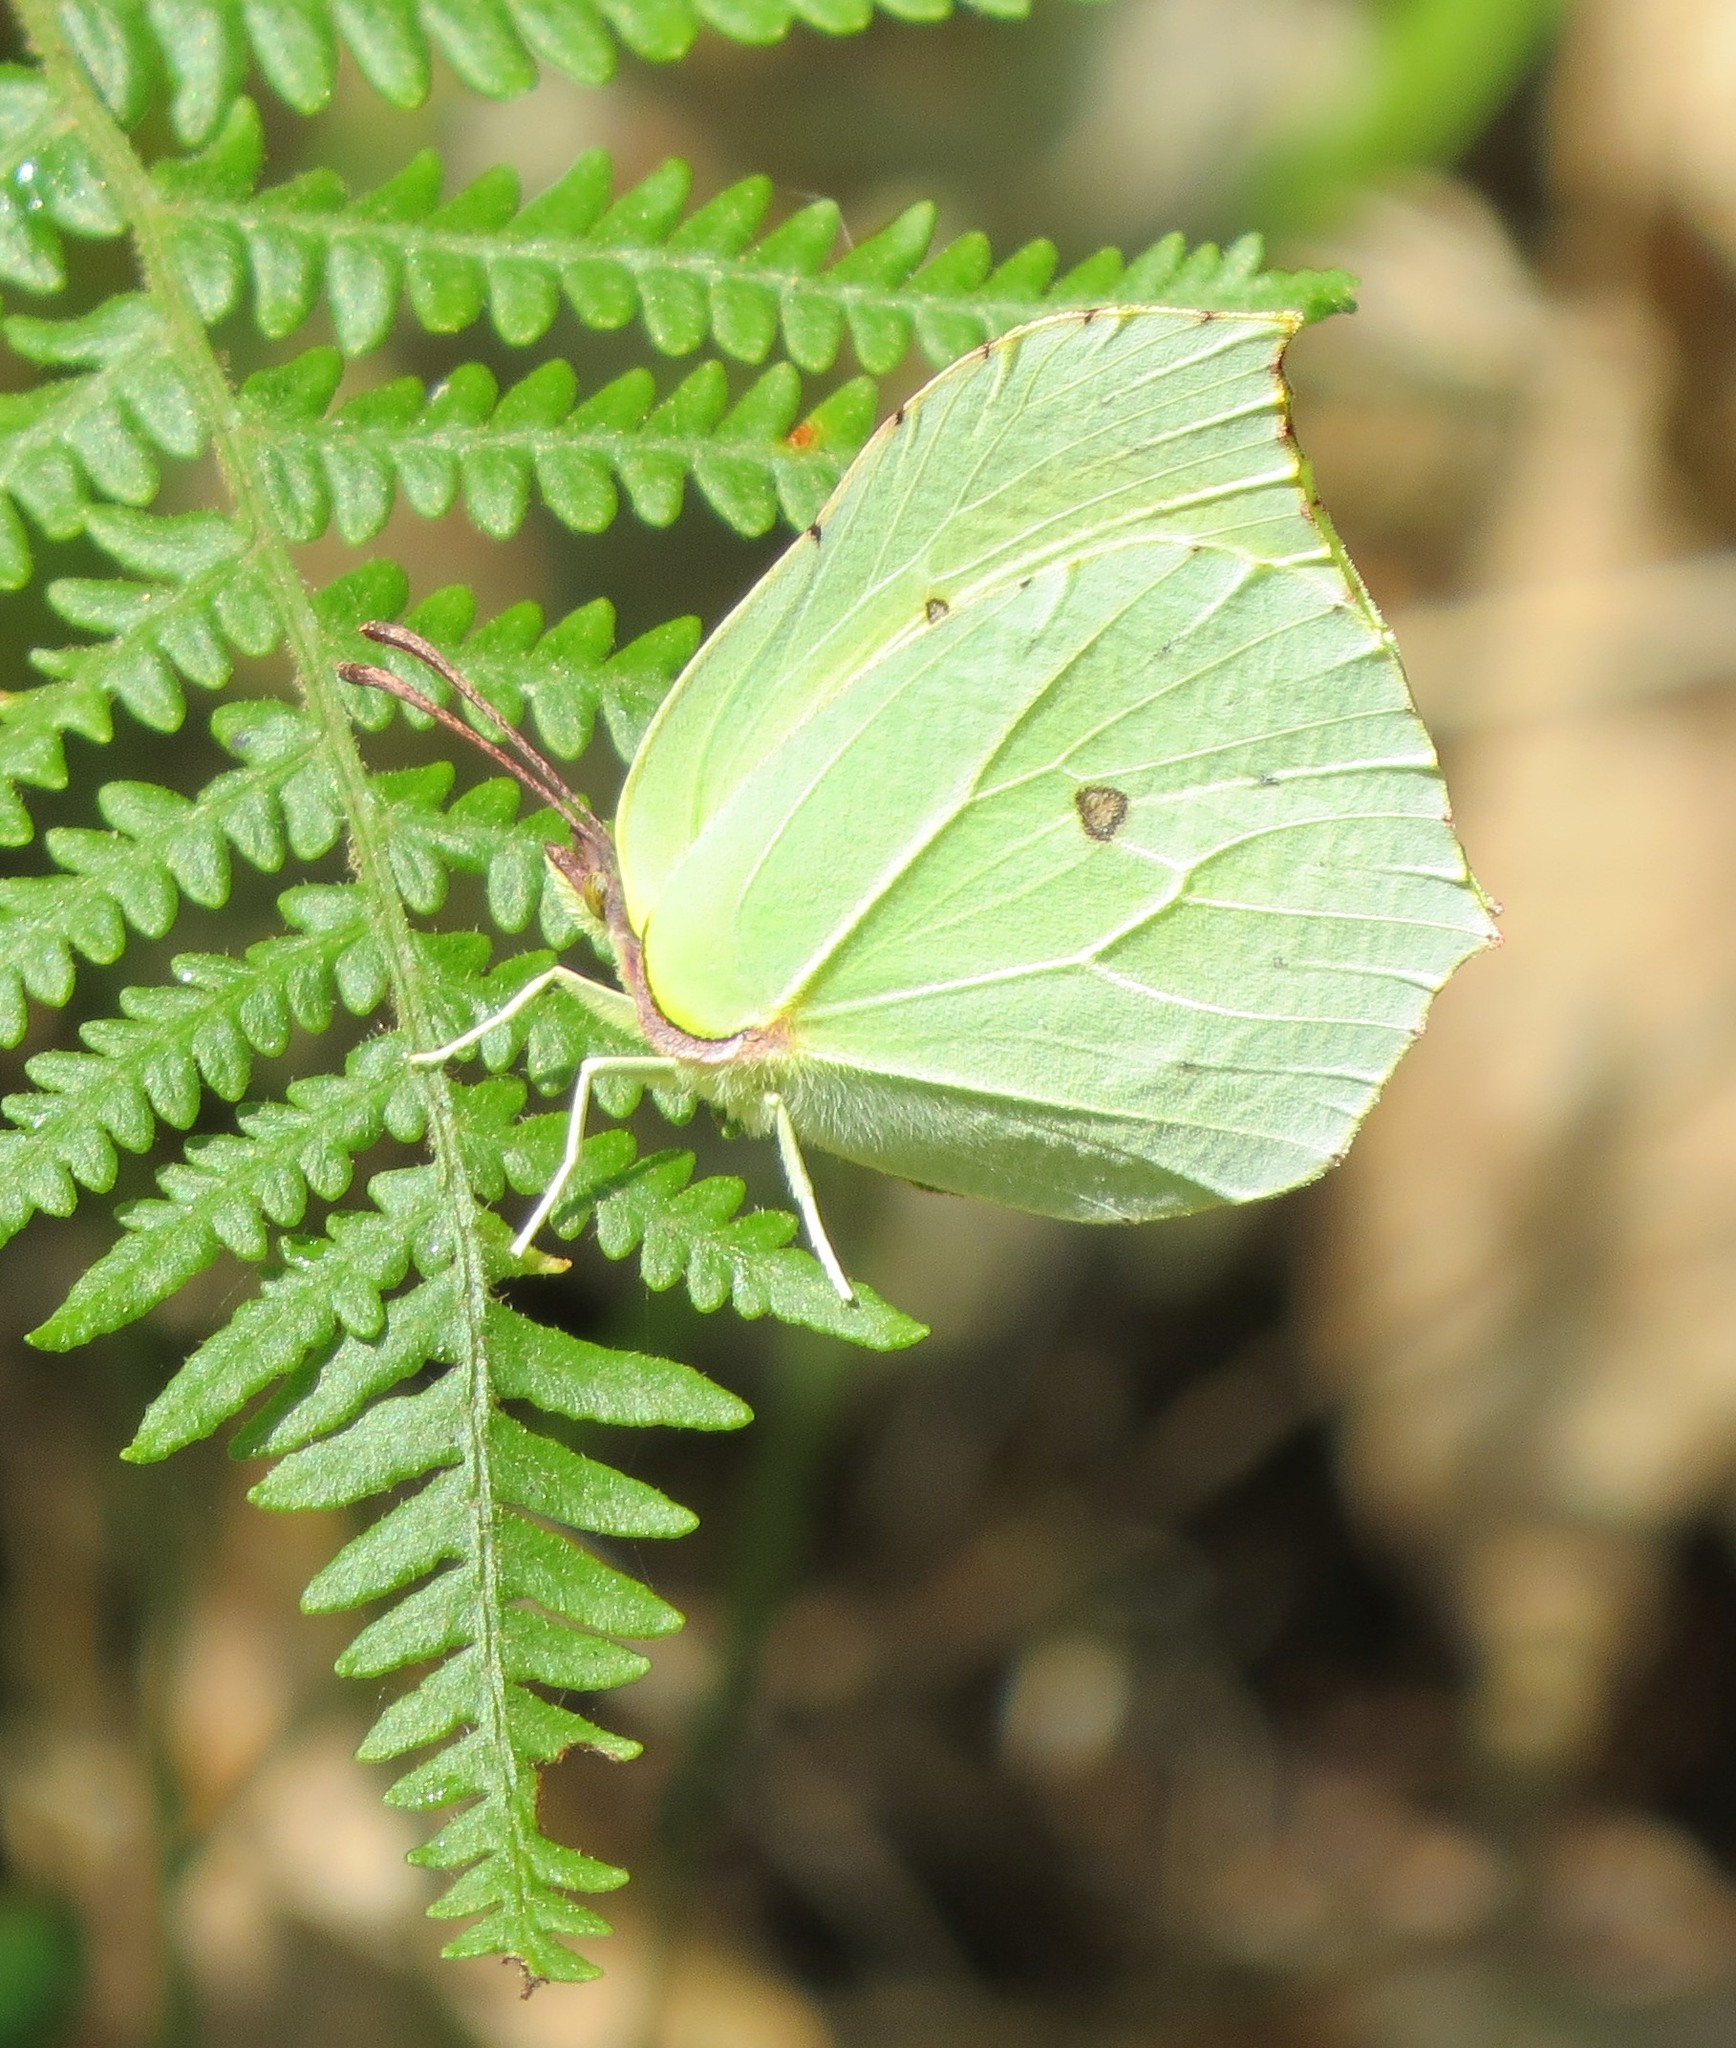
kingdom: Animalia
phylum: Arthropoda
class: Insecta
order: Lepidoptera
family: Pieridae
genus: Gonepteryx
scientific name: Gonepteryx rhamni
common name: Brimstone
